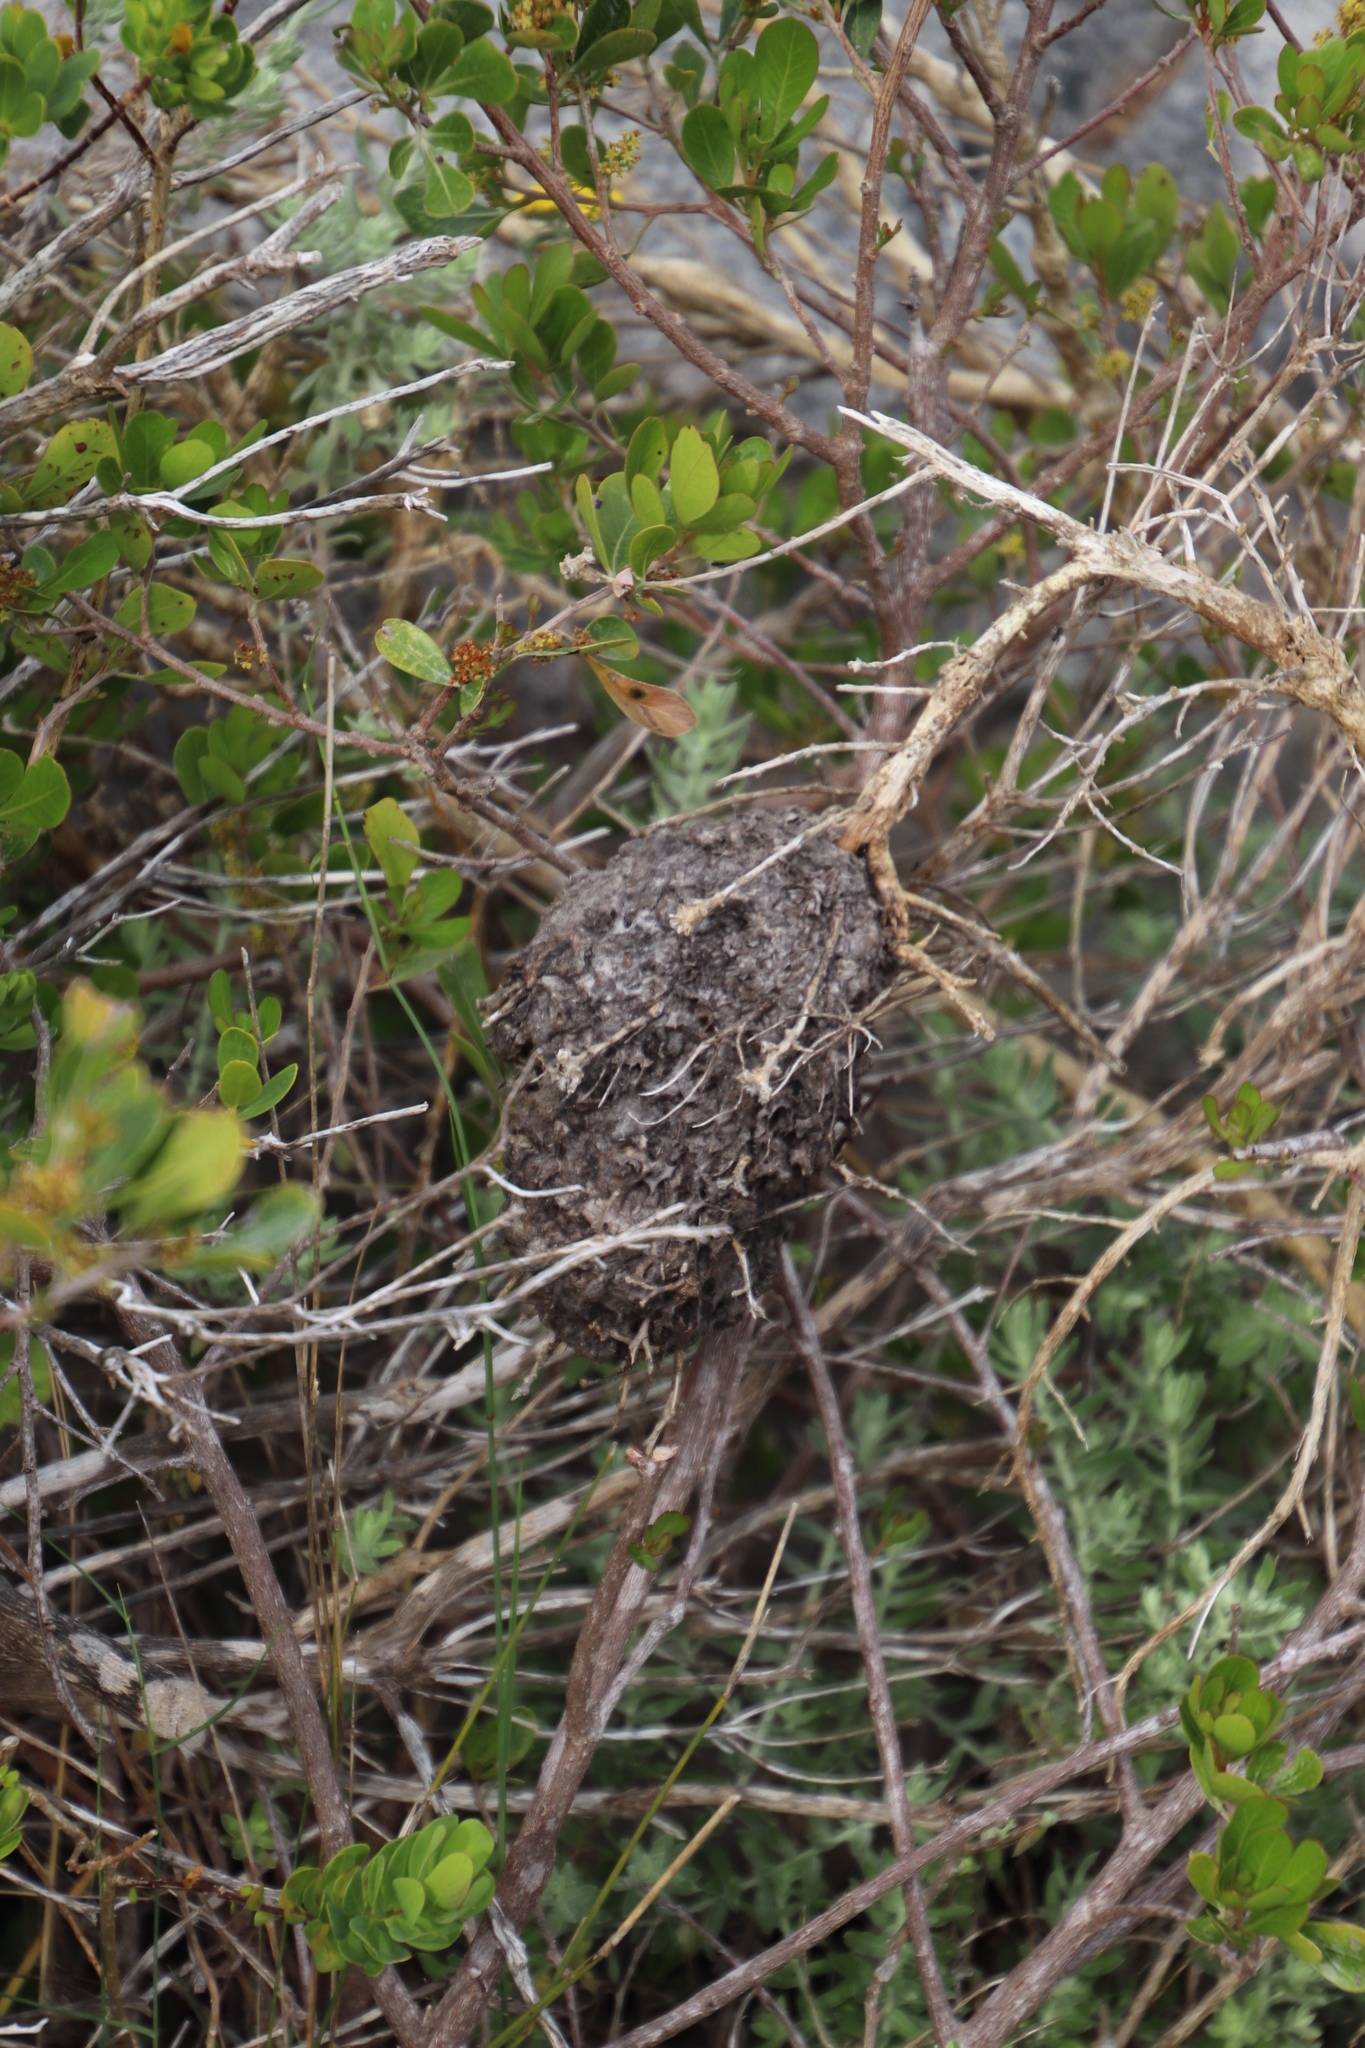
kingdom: Animalia
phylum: Arthropoda
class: Insecta
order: Hymenoptera
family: Formicidae
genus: Crematogaster
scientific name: Crematogaster peringueyi
